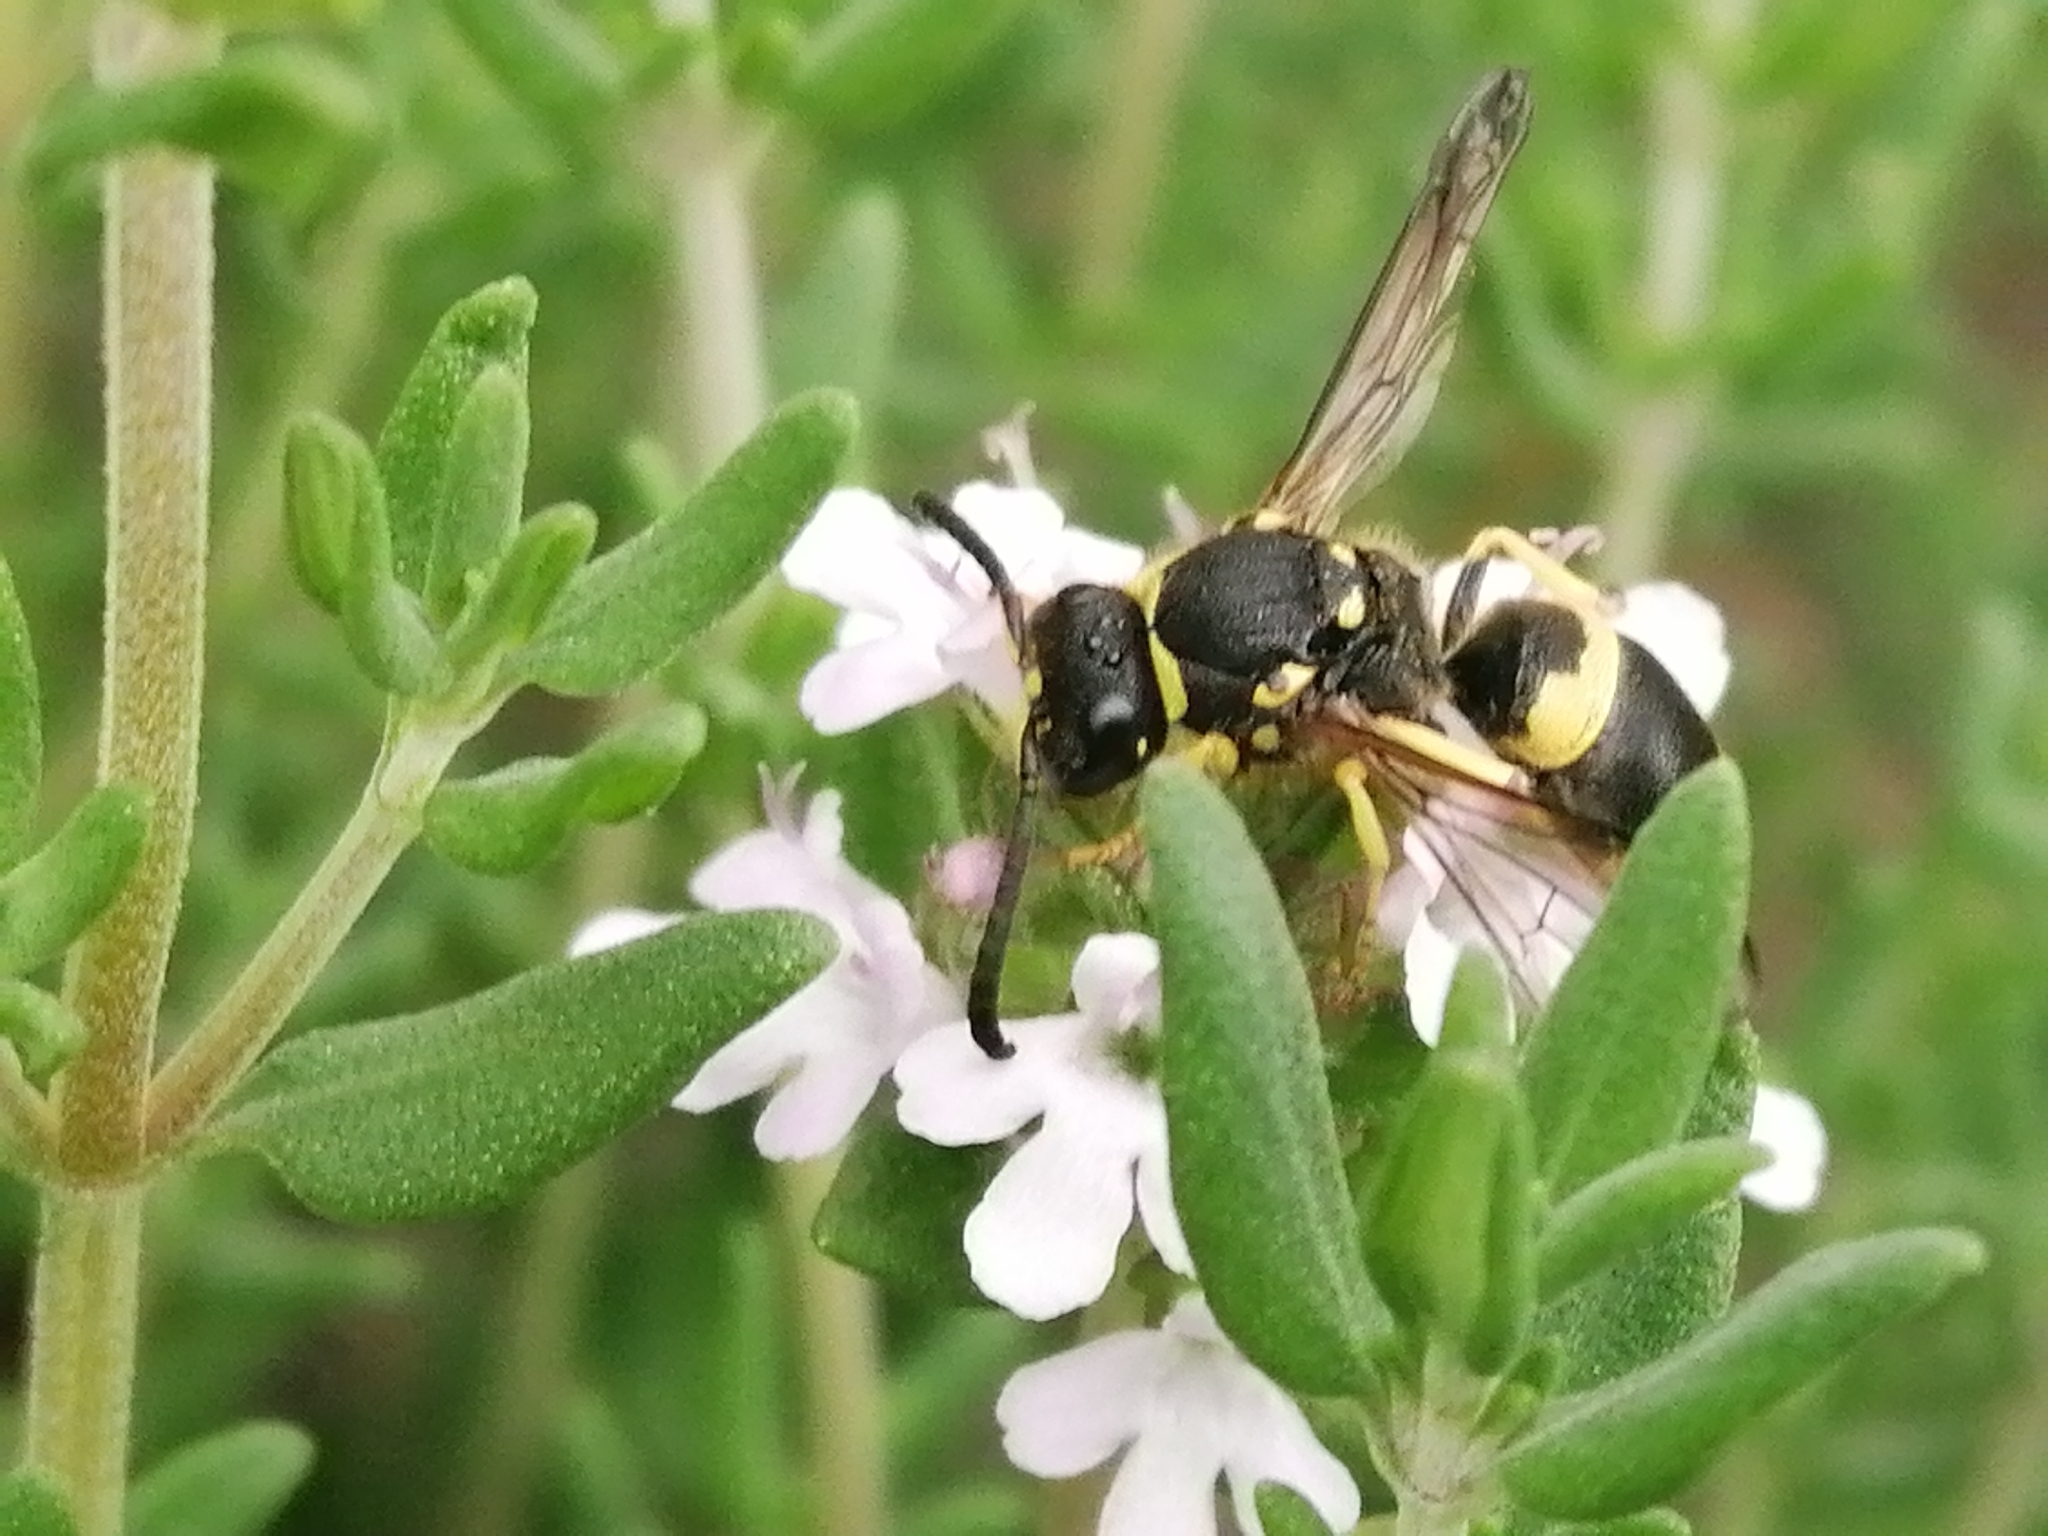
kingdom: Animalia
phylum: Arthropoda
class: Insecta
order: Hymenoptera
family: Vespidae
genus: Ancistrocerus
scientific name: Ancistrocerus gazella
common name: European tube wasp
